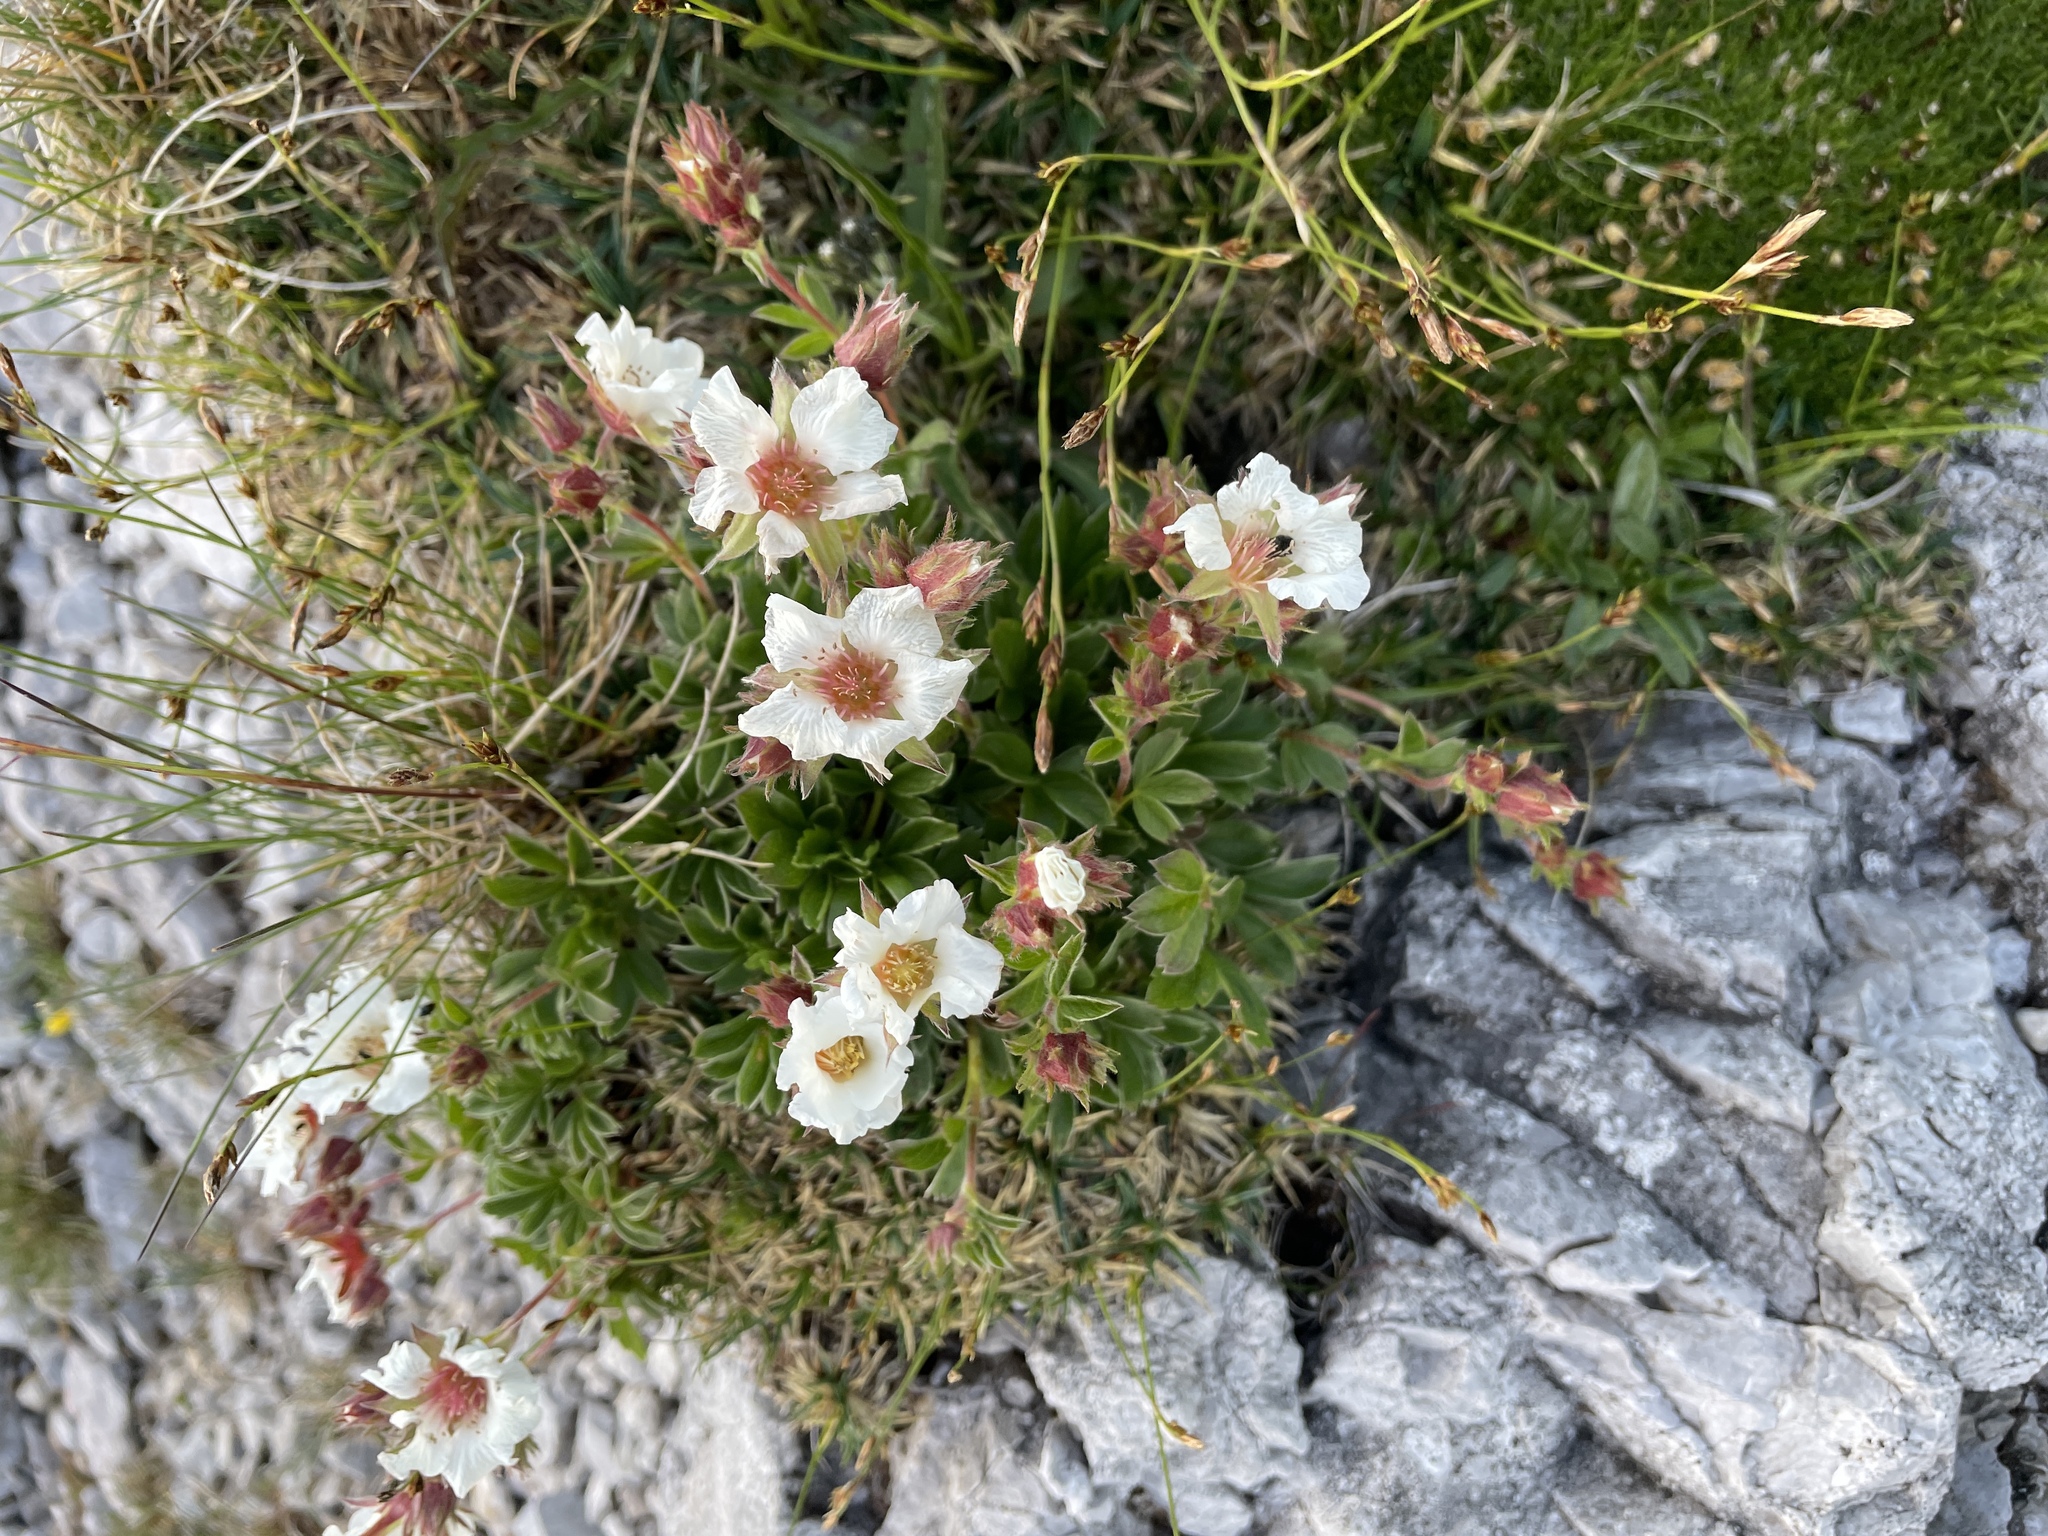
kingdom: Plantae
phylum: Tracheophyta
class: Magnoliopsida
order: Rosales
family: Rosaceae
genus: Potentilla
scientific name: Potentilla clusiana
